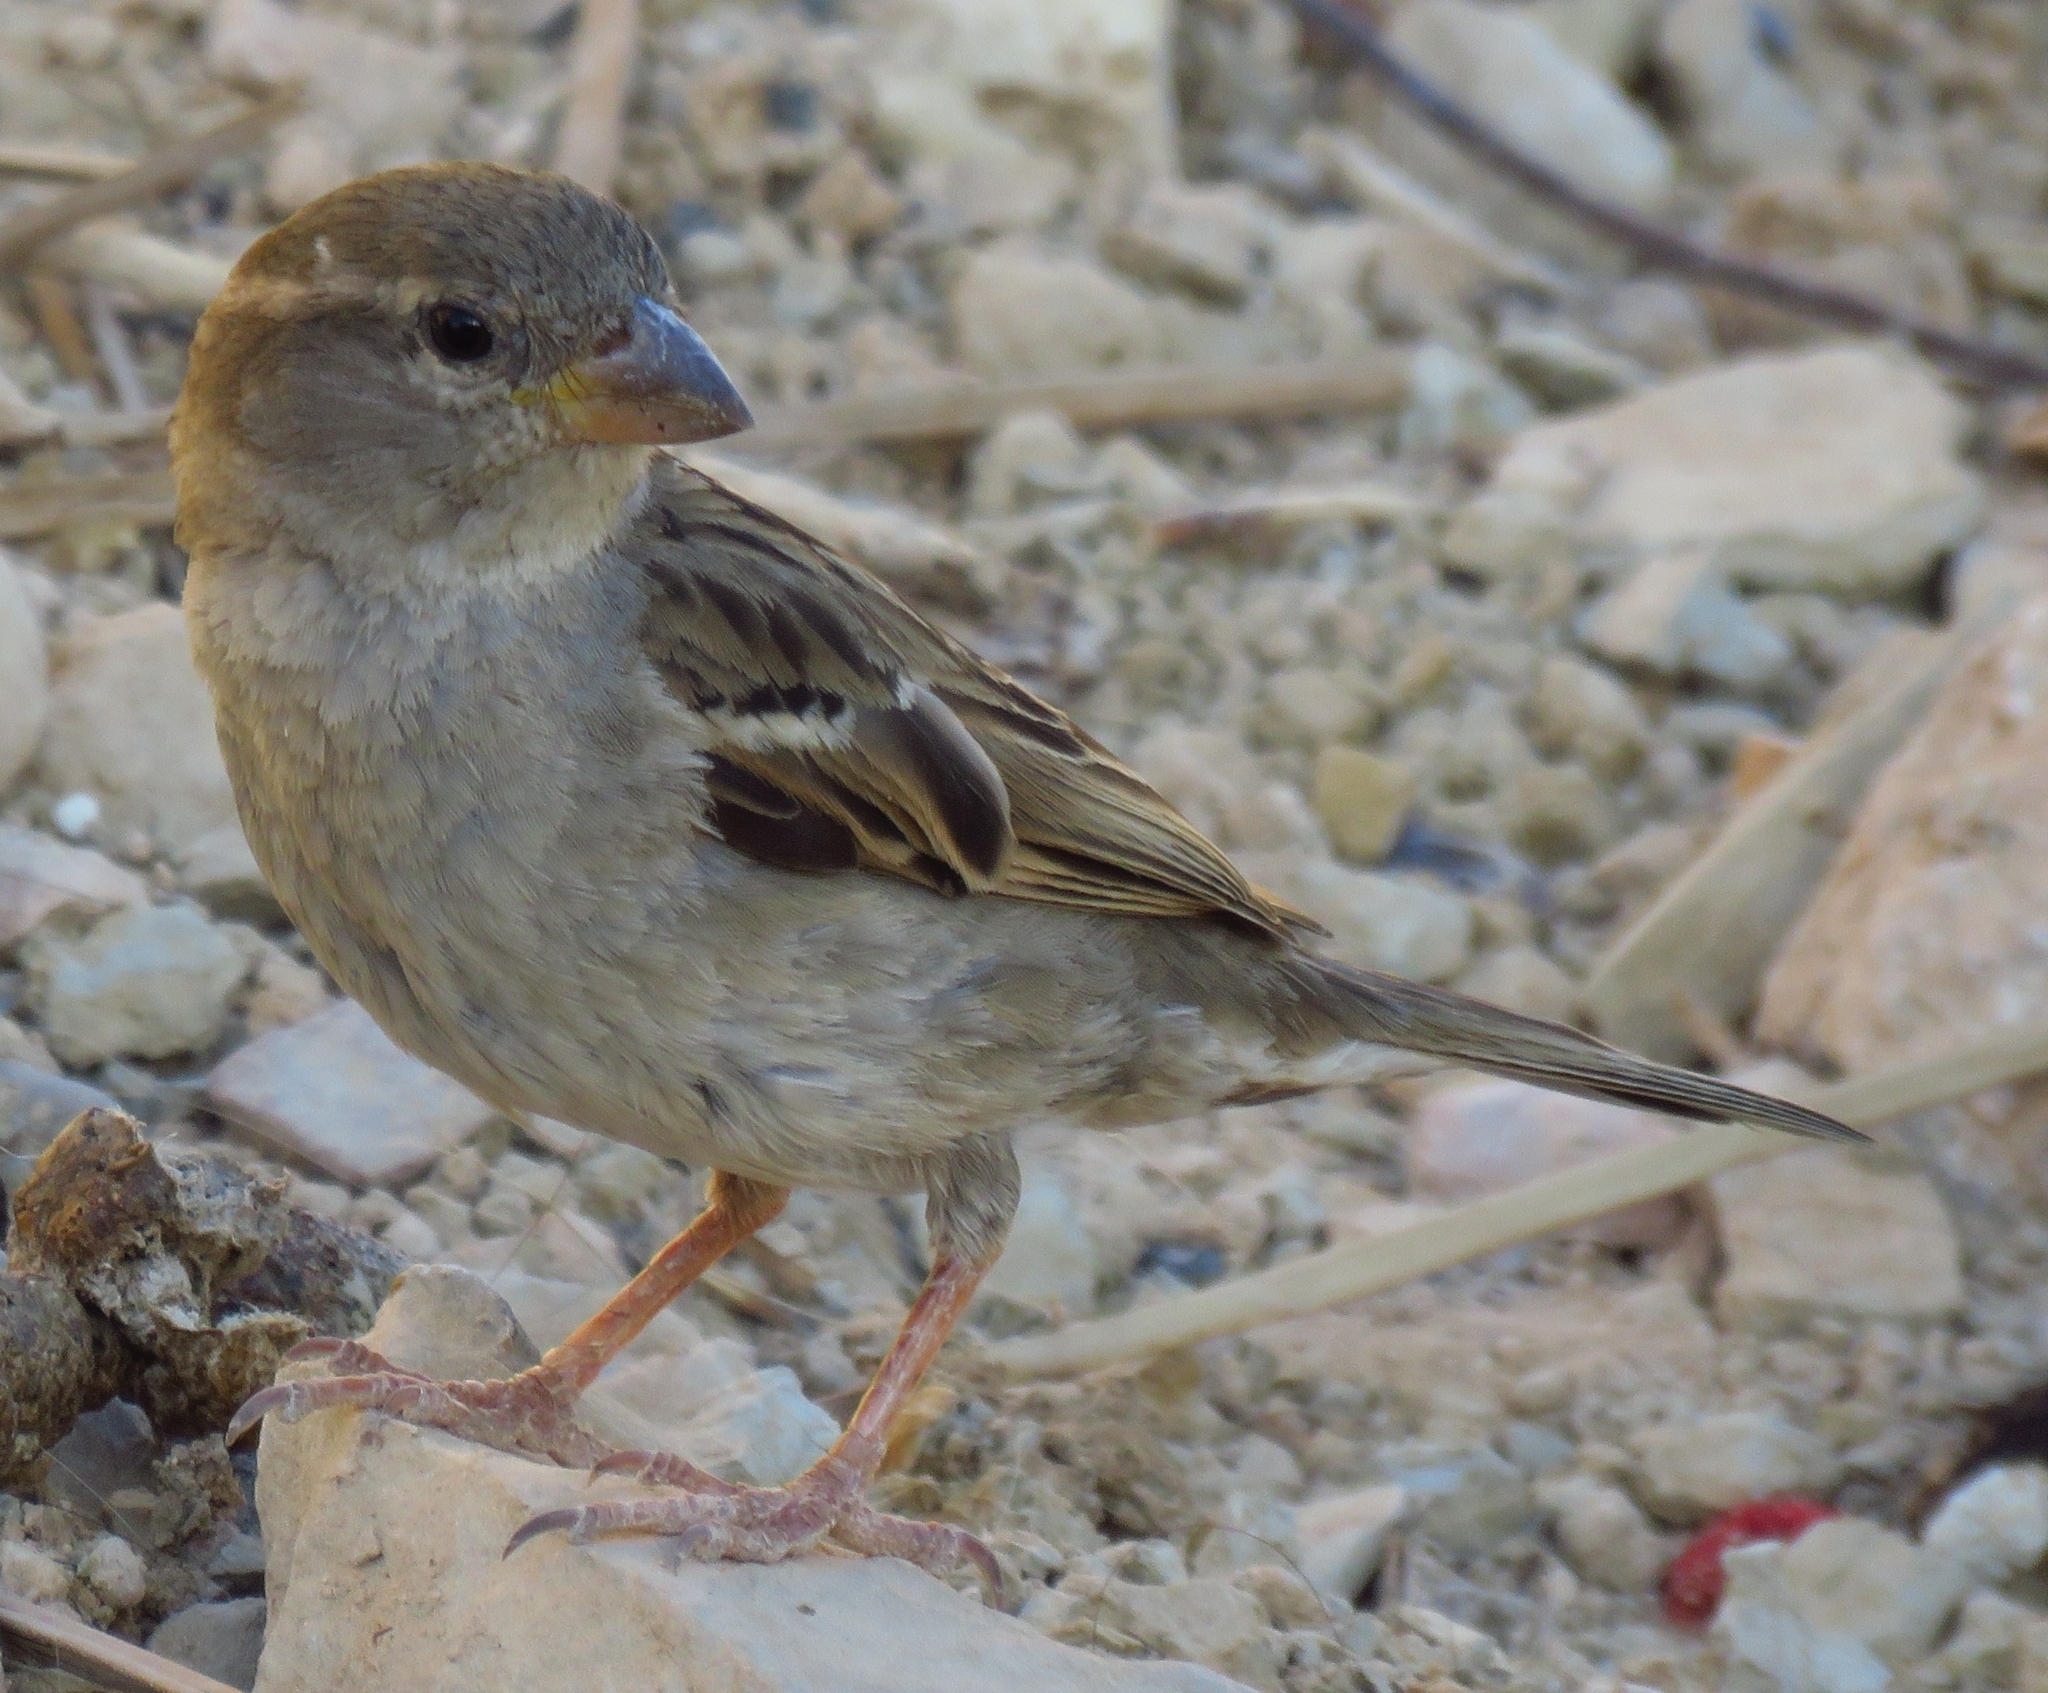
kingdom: Animalia
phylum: Chordata
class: Aves
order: Passeriformes
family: Passeridae
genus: Passer
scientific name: Passer domesticus
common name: House sparrow
